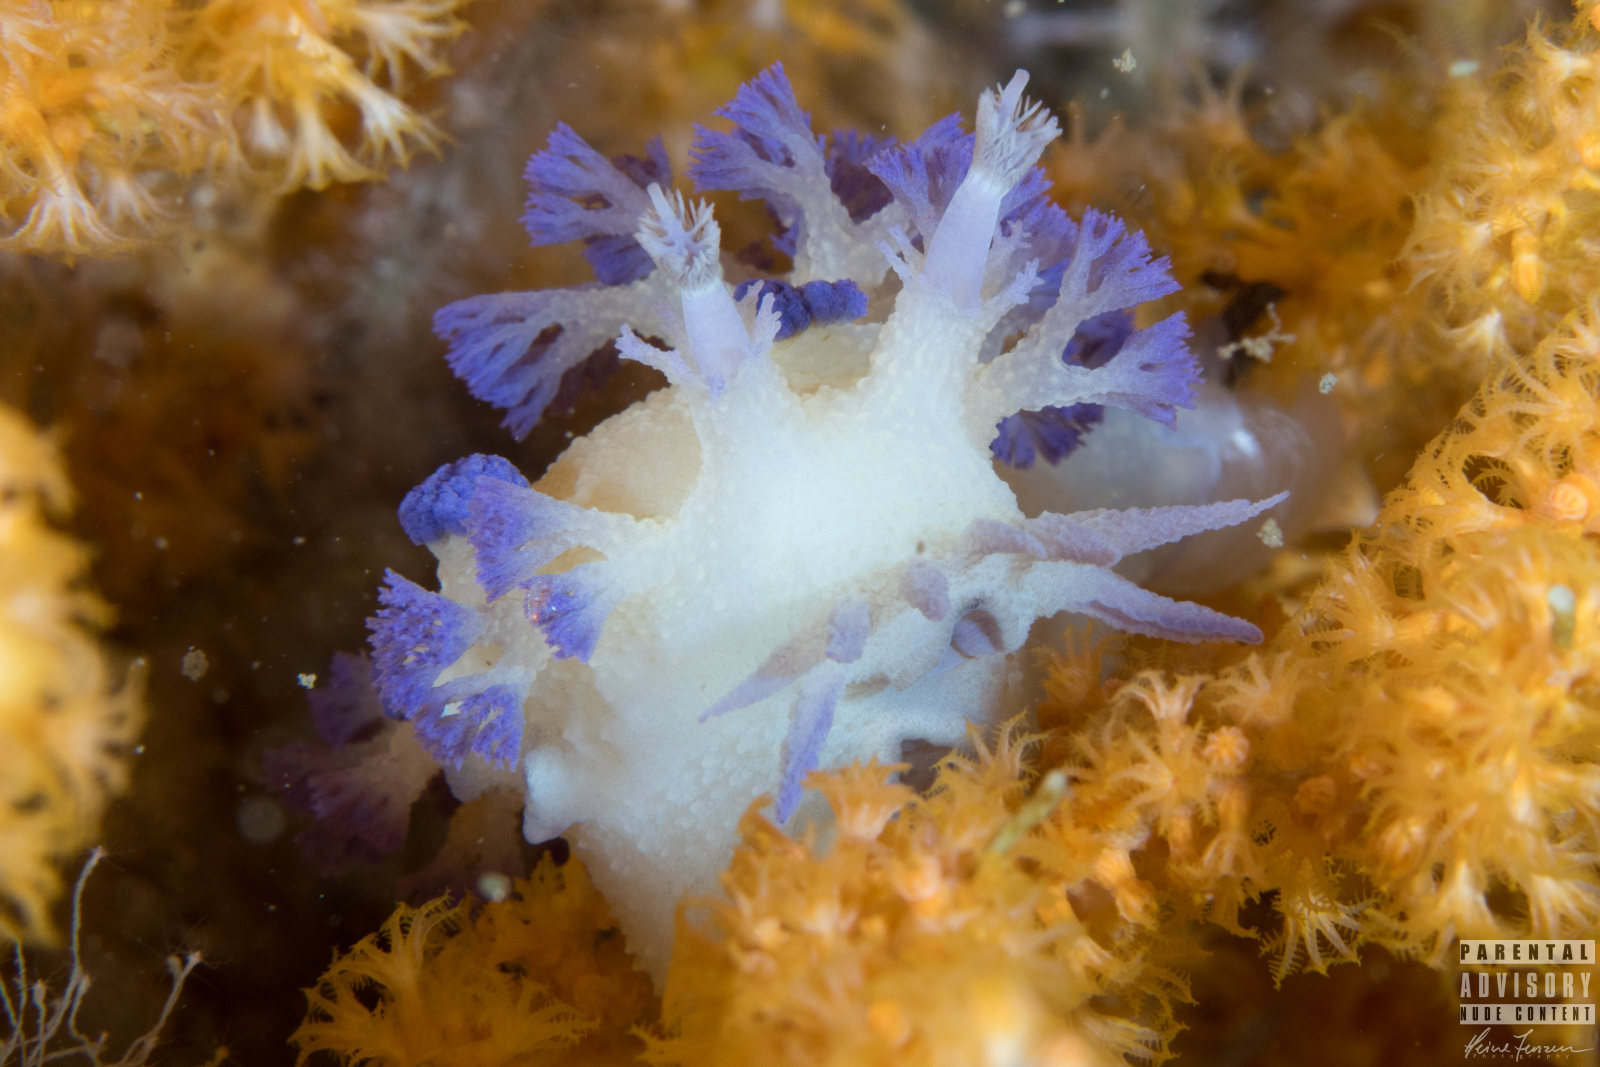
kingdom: Animalia
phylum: Mollusca
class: Gastropoda
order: Nudibranchia
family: Tritoniidae
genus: Tritonia
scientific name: Tritonia griegi
